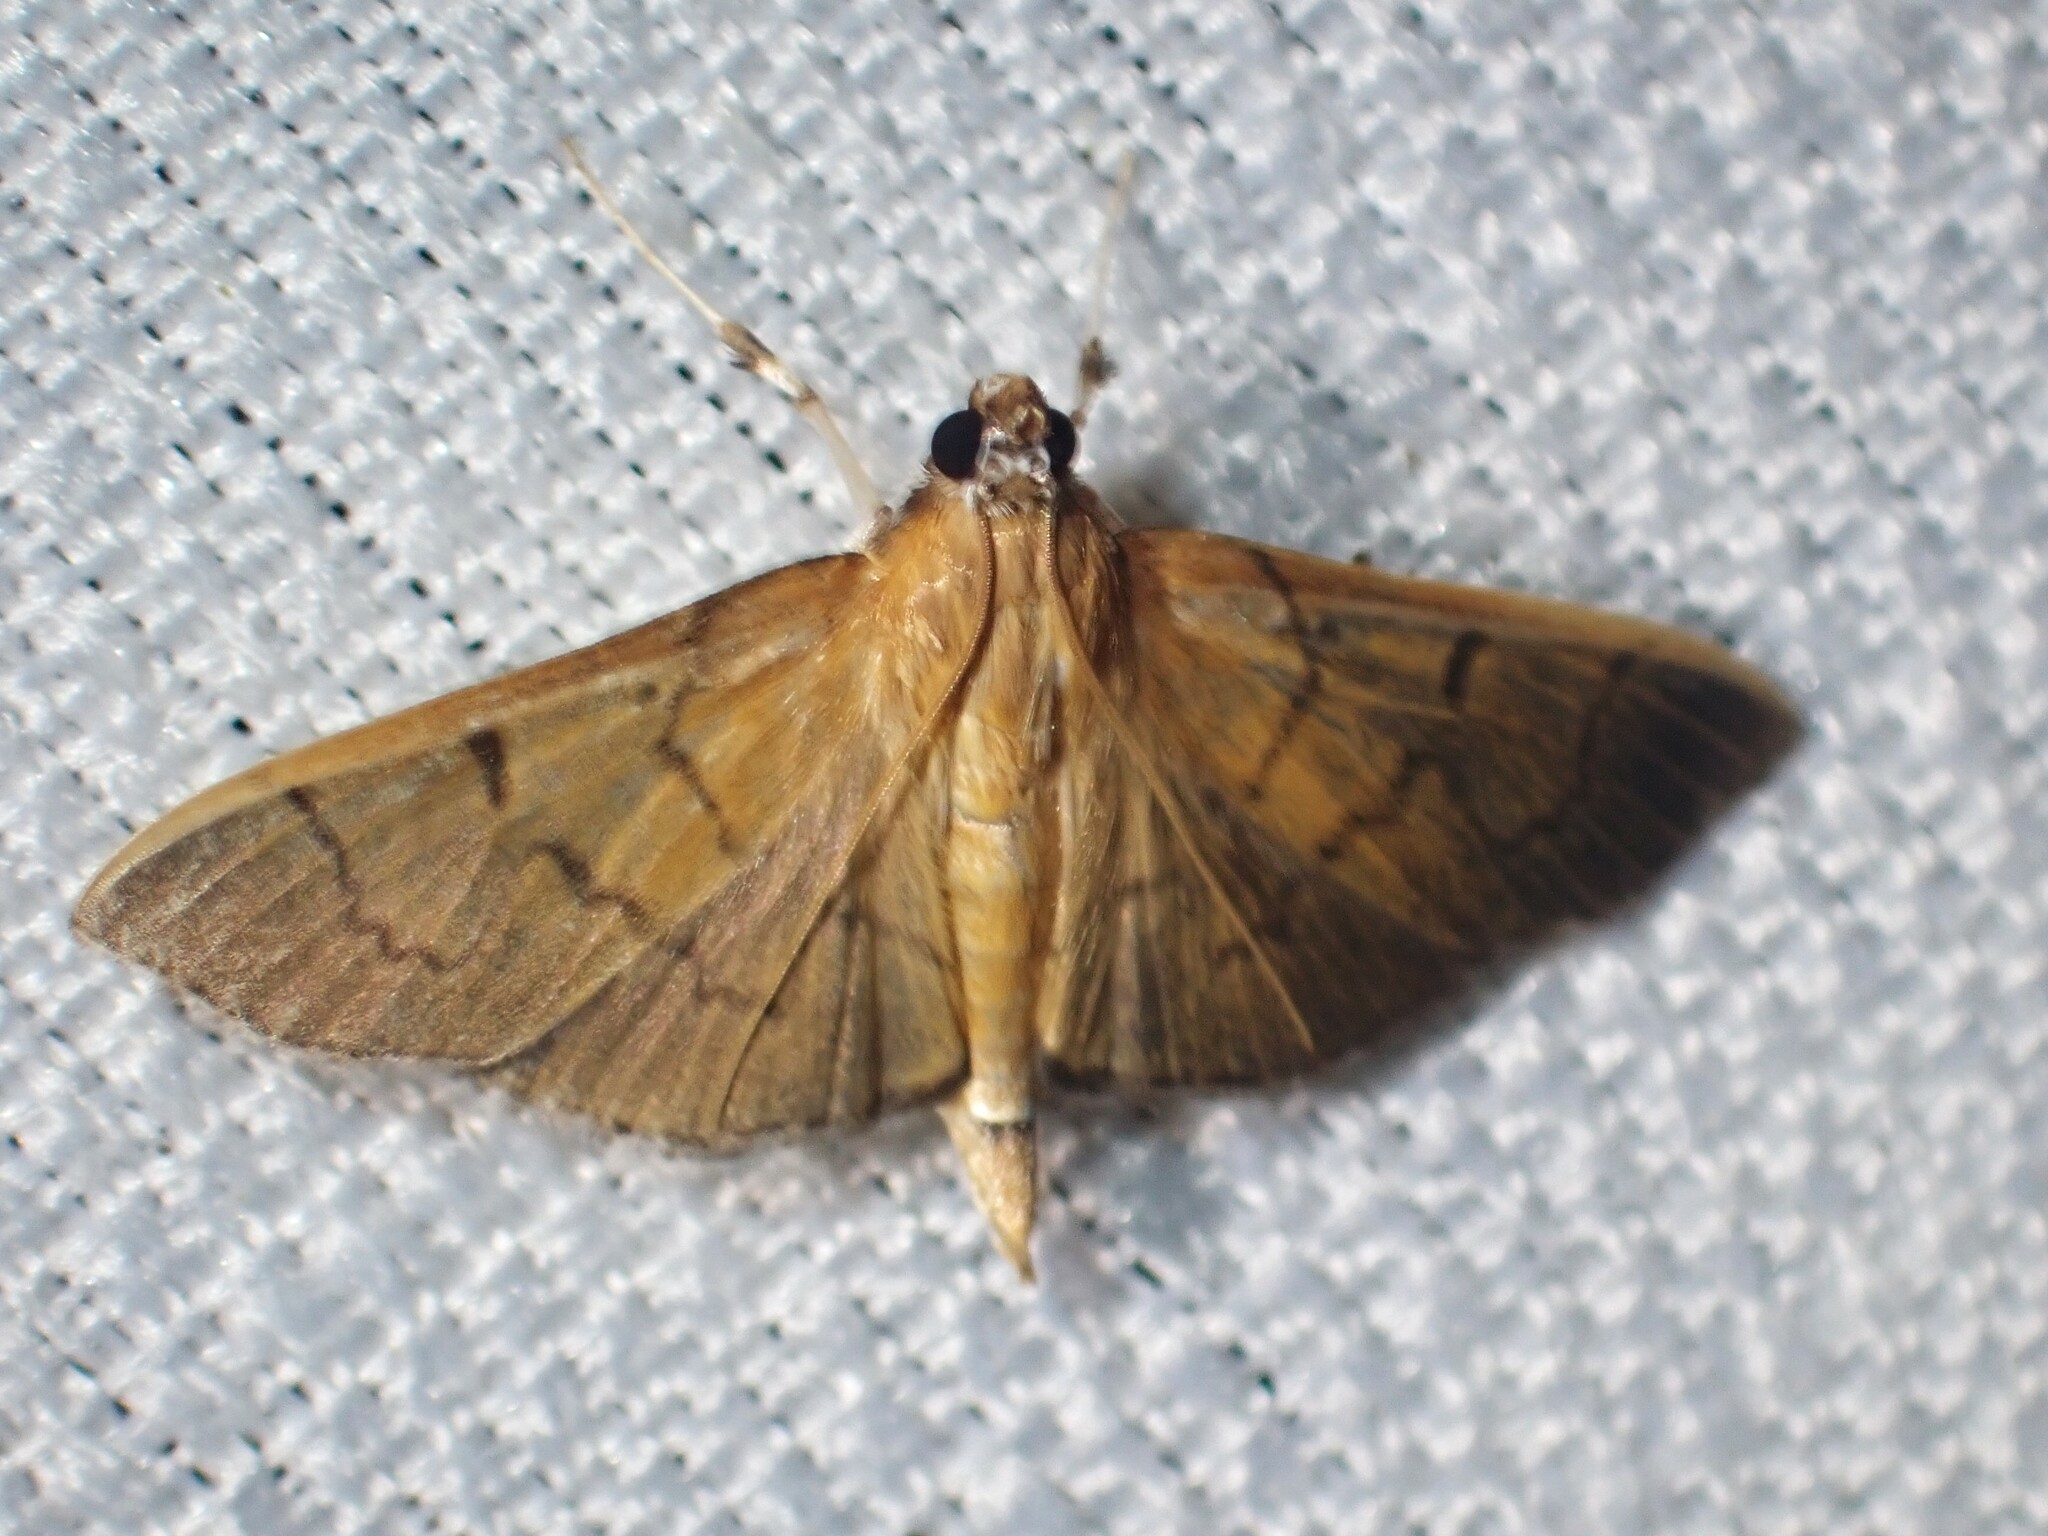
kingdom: Animalia
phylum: Arthropoda
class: Insecta
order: Lepidoptera
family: Crambidae
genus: Omiodes
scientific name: Omiodes indicata
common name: Bean-leaf webworm moth
